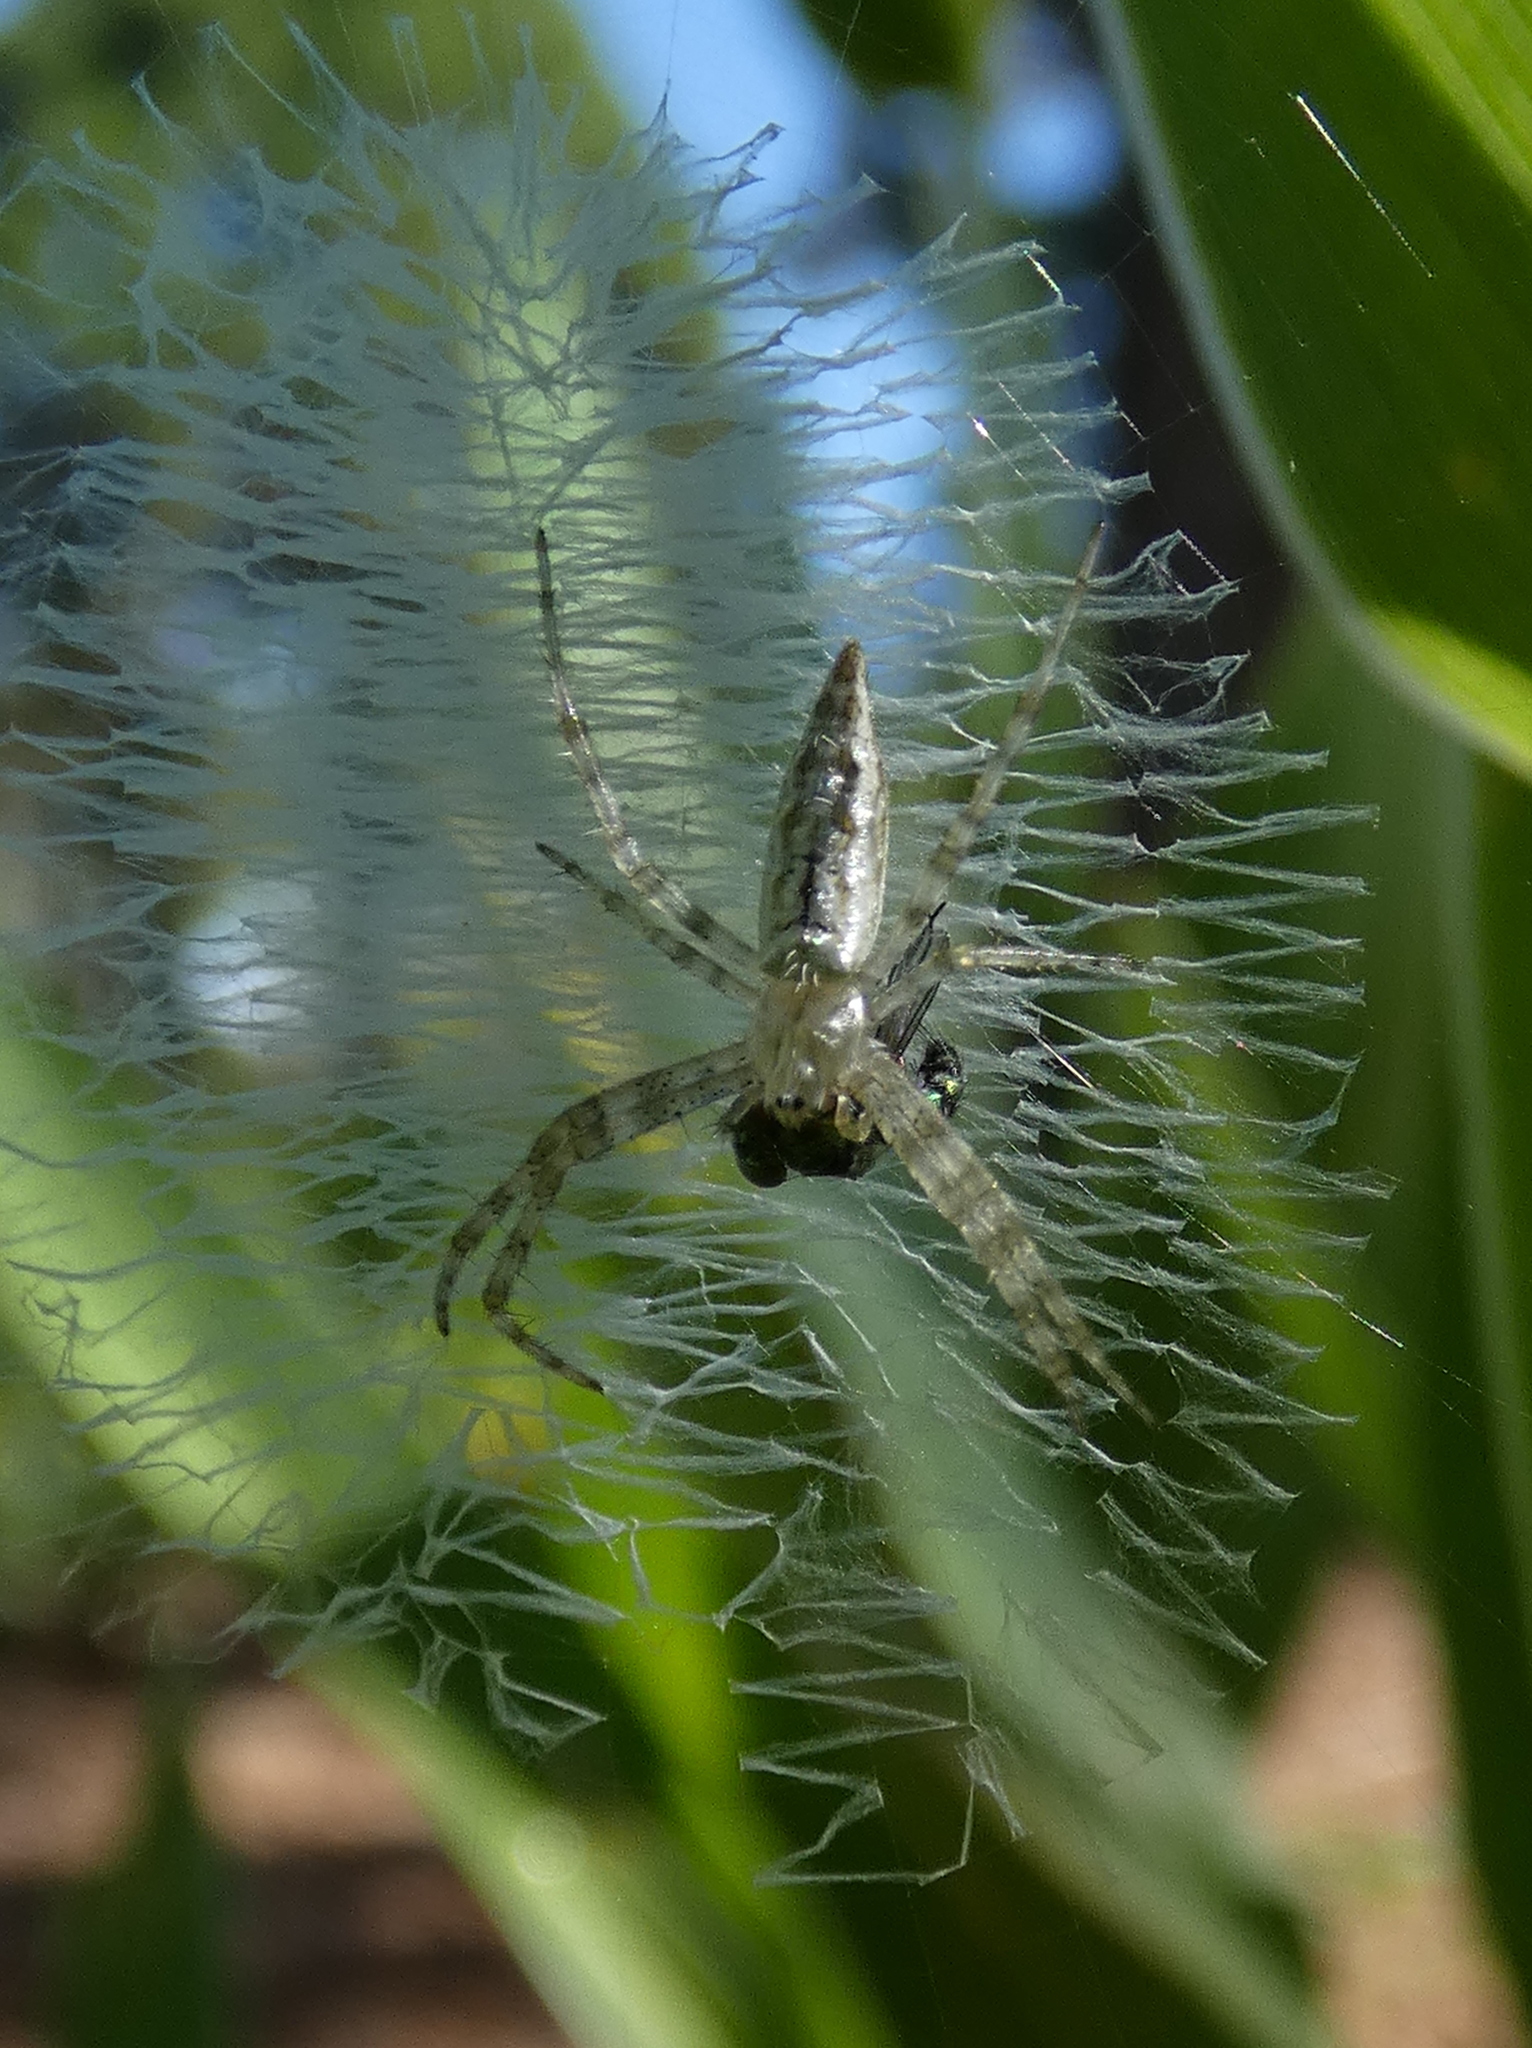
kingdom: Animalia
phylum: Arthropoda
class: Arachnida
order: Araneae
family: Araneidae
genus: Argiope
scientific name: Argiope aurantia
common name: Orb weavers
